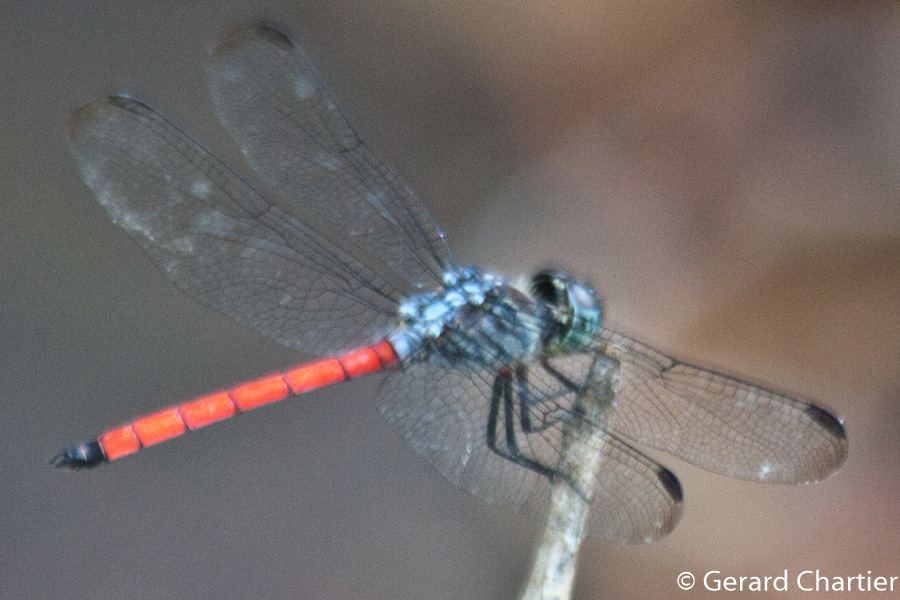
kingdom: Animalia
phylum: Arthropoda
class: Insecta
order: Odonata
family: Libellulidae
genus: Lathrecista
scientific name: Lathrecista asiatica
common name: Scarlet grenadier
